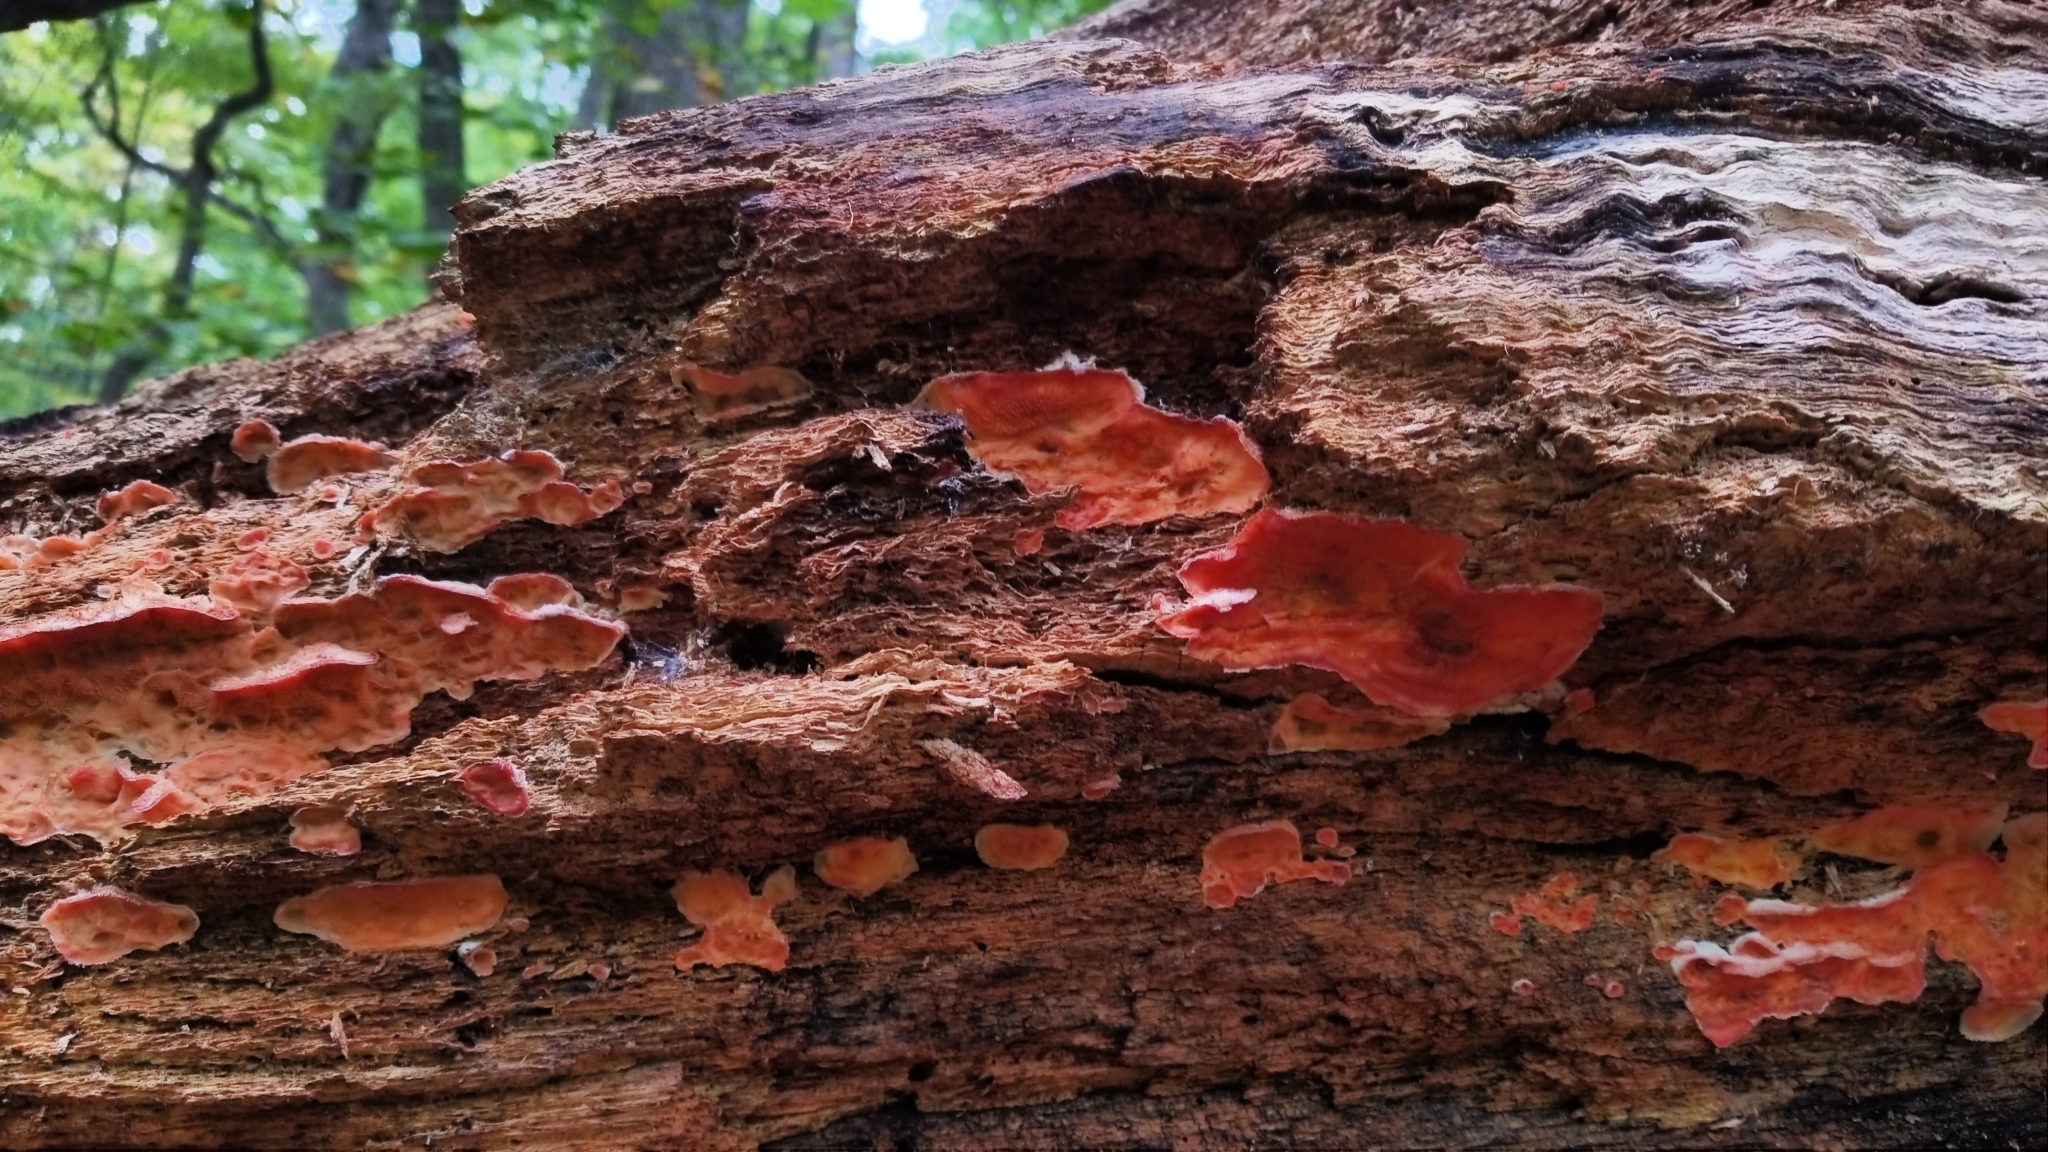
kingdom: Fungi
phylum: Basidiomycota
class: Agaricomycetes
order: Polyporales
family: Meruliaceae
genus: Phlebia
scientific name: Phlebia tremellosa
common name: Jelly rot
